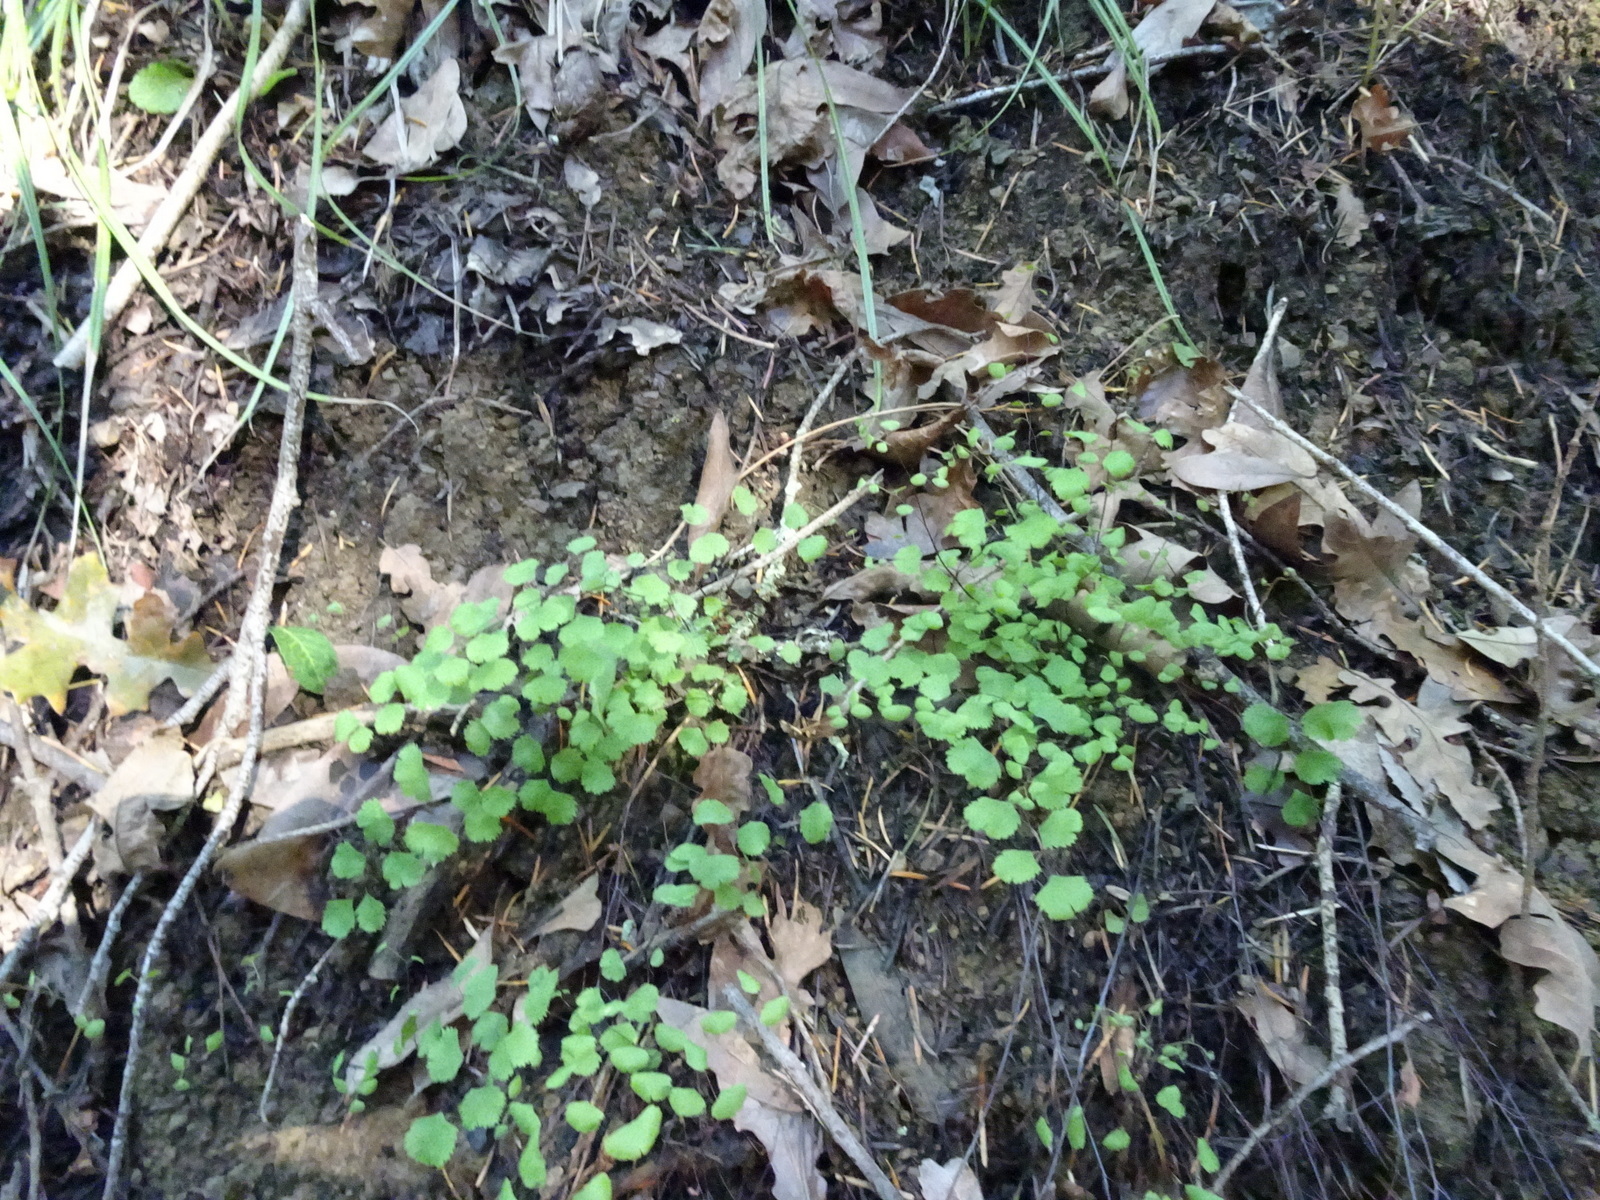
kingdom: Plantae
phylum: Tracheophyta
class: Polypodiopsida
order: Polypodiales
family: Pteridaceae
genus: Adiantum
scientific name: Adiantum jordanii
